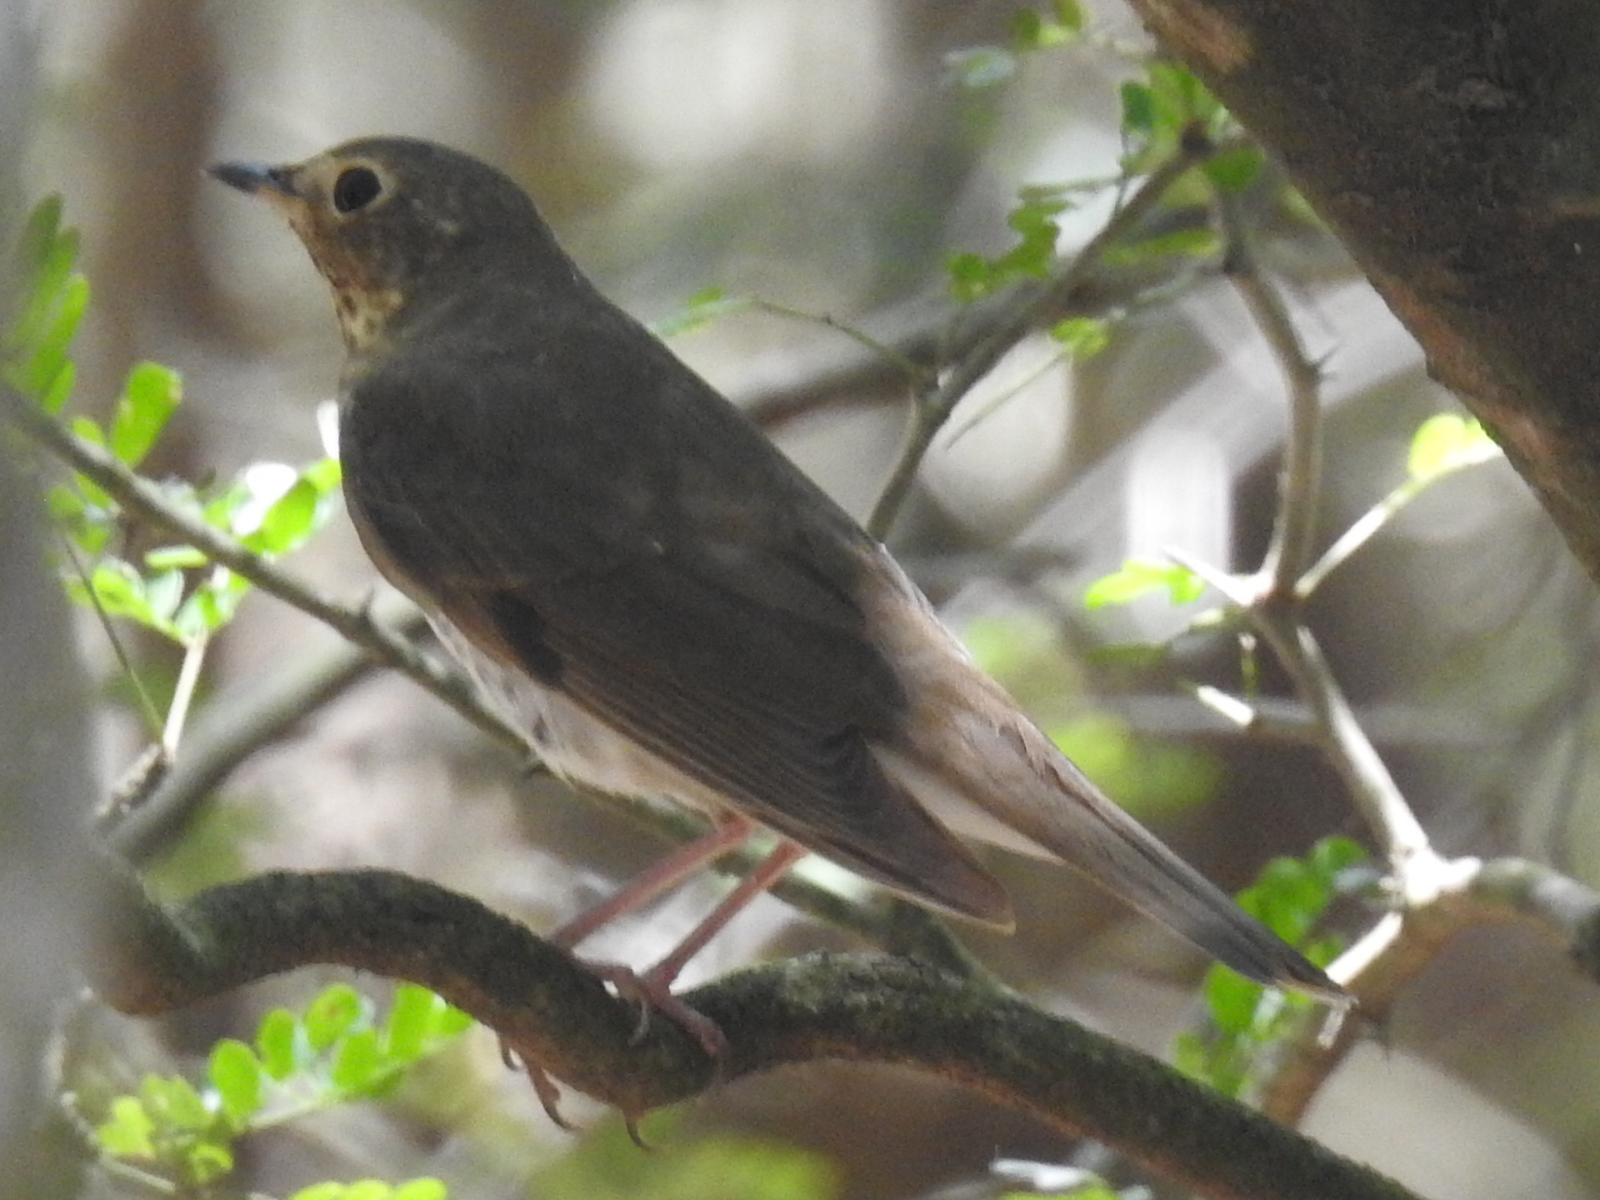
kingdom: Animalia
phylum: Chordata
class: Aves
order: Passeriformes
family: Turdidae
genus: Catharus
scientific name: Catharus ustulatus
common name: Swainson's thrush
